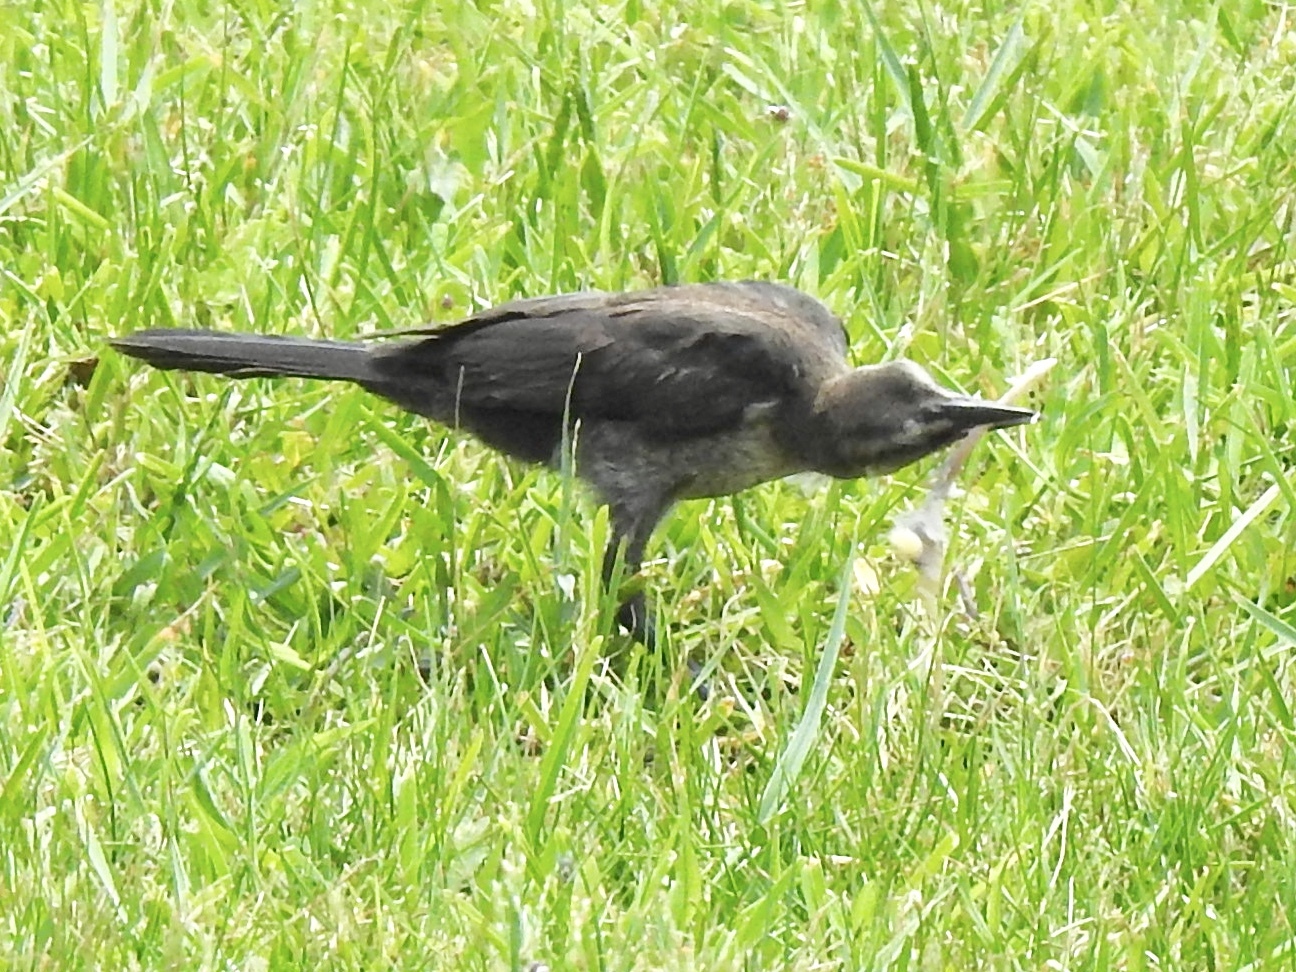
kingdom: Animalia
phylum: Chordata
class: Aves
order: Passeriformes
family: Icteridae
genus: Quiscalus
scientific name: Quiscalus mexicanus
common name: Great-tailed grackle
